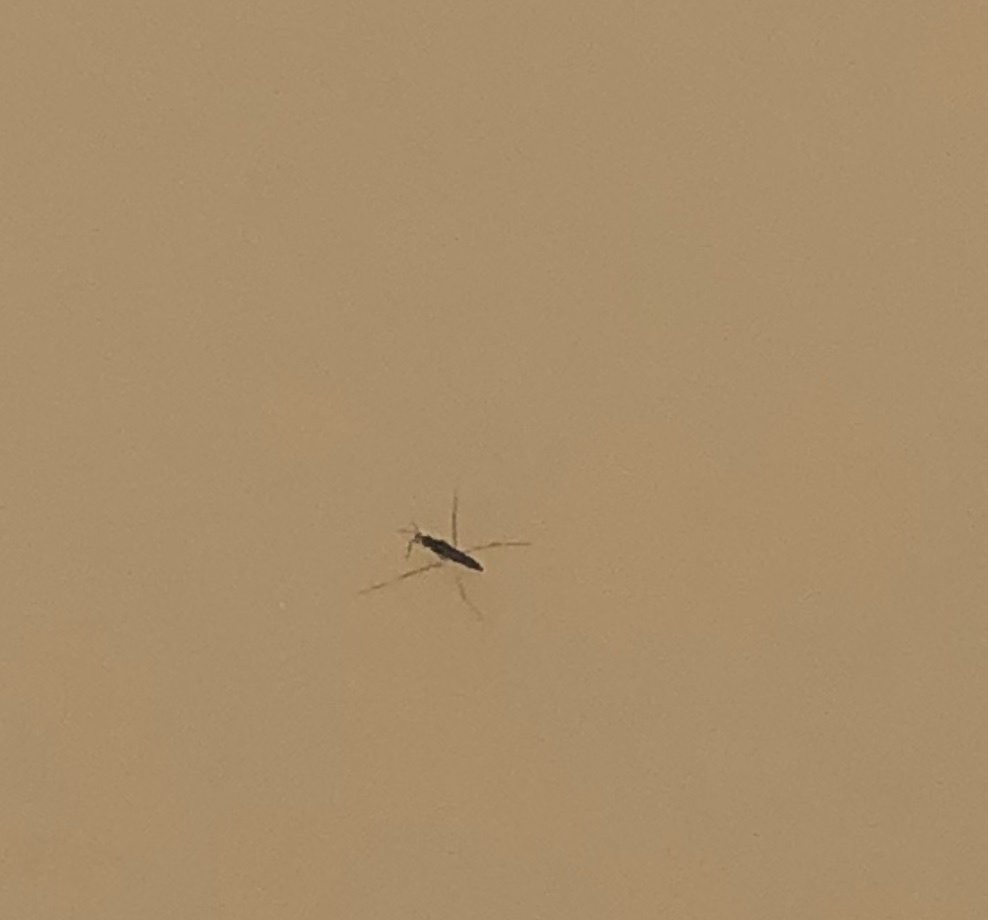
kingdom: Animalia
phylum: Arthropoda
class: Insecta
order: Hemiptera
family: Gerridae
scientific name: Gerridae
